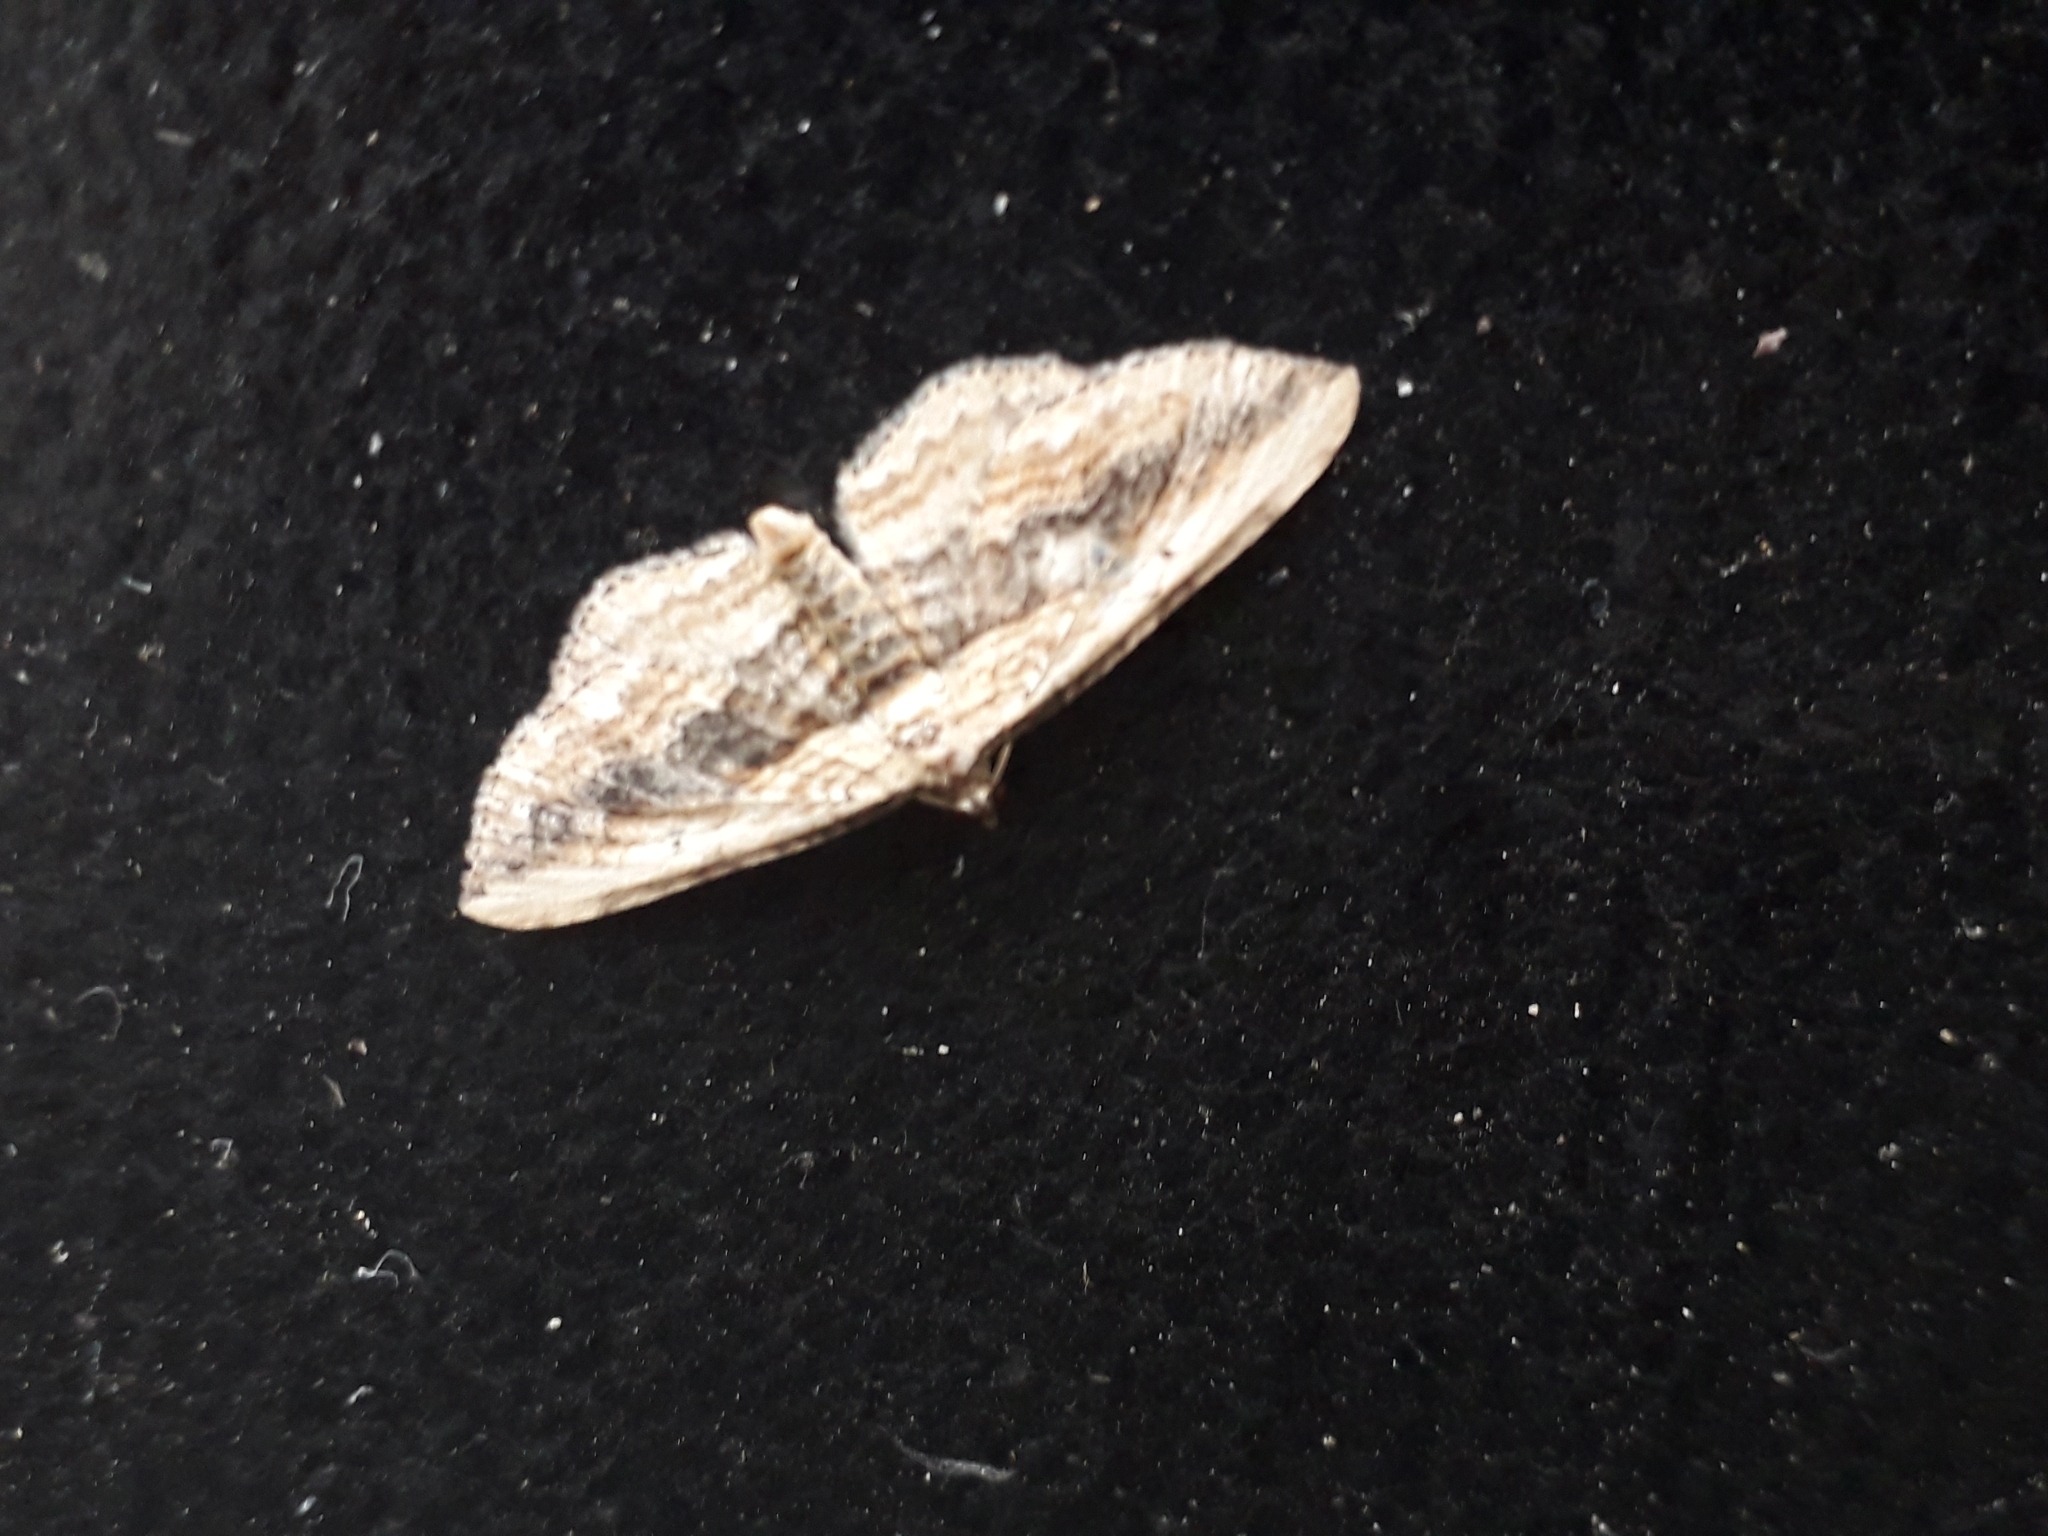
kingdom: Animalia
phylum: Arthropoda
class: Insecta
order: Lepidoptera
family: Geometridae
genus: Horisme
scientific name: Horisme vitalbata
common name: Small waved umber
